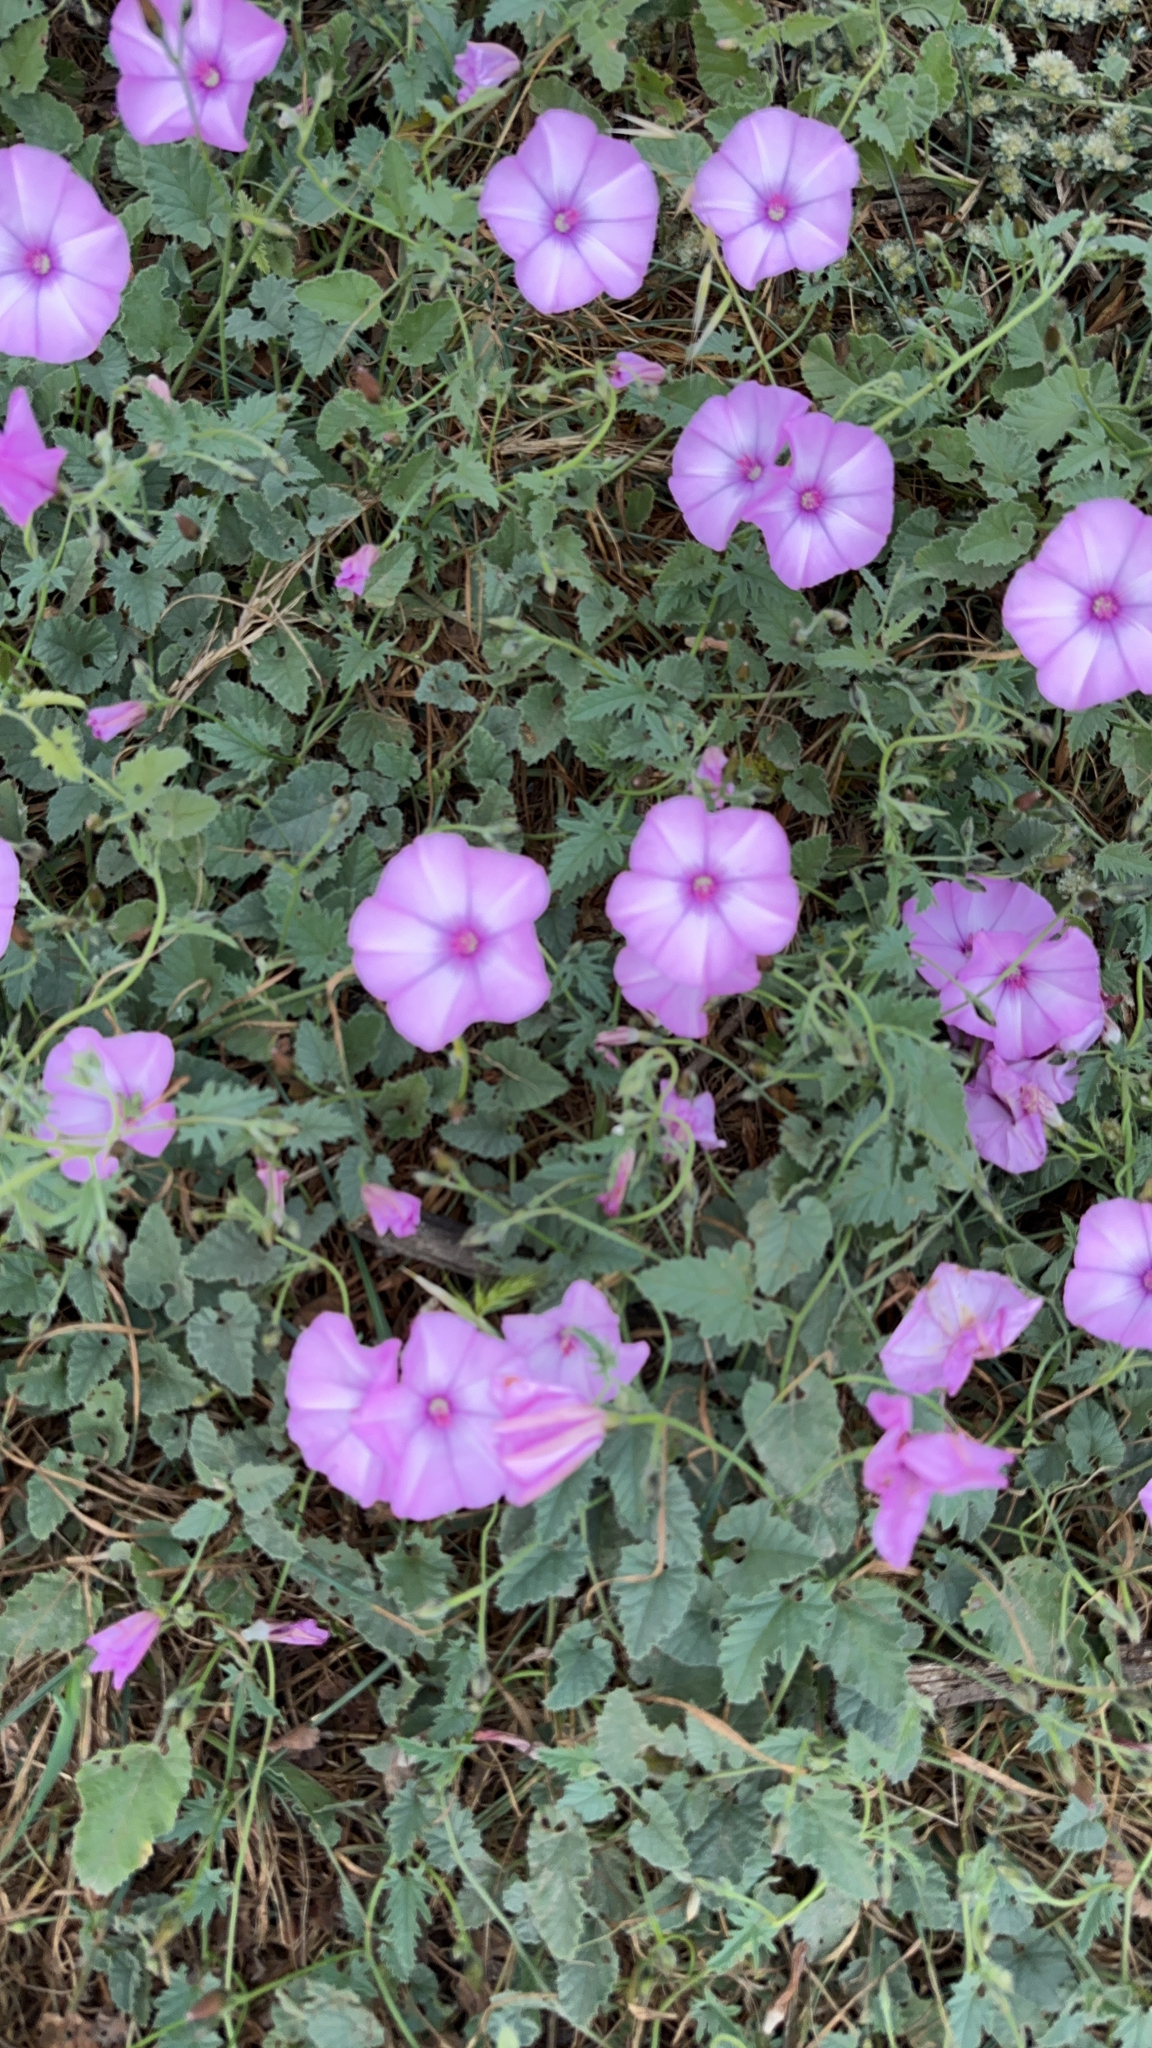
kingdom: Plantae
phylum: Tracheophyta
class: Magnoliopsida
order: Solanales
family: Convolvulaceae
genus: Convolvulus
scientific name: Convolvulus althaeoides
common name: Mallow bindweed
